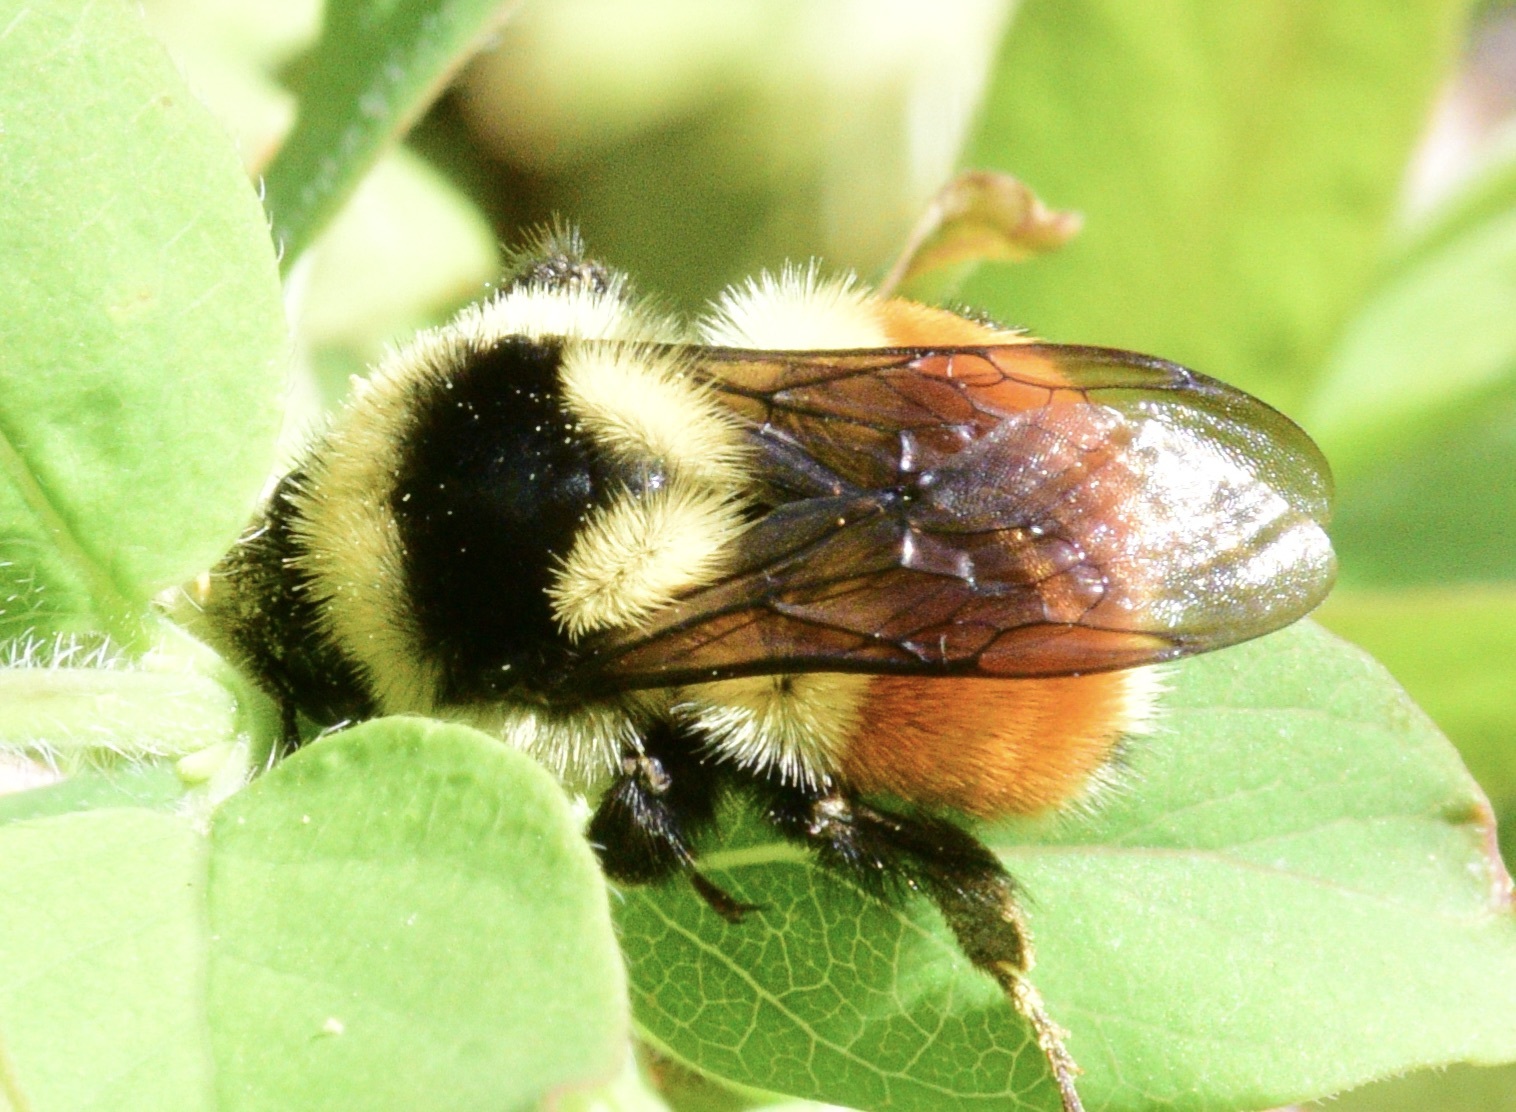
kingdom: Animalia
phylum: Arthropoda
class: Insecta
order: Hymenoptera
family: Apidae
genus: Bombus
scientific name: Bombus ternarius
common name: Tri-colored bumble bee
